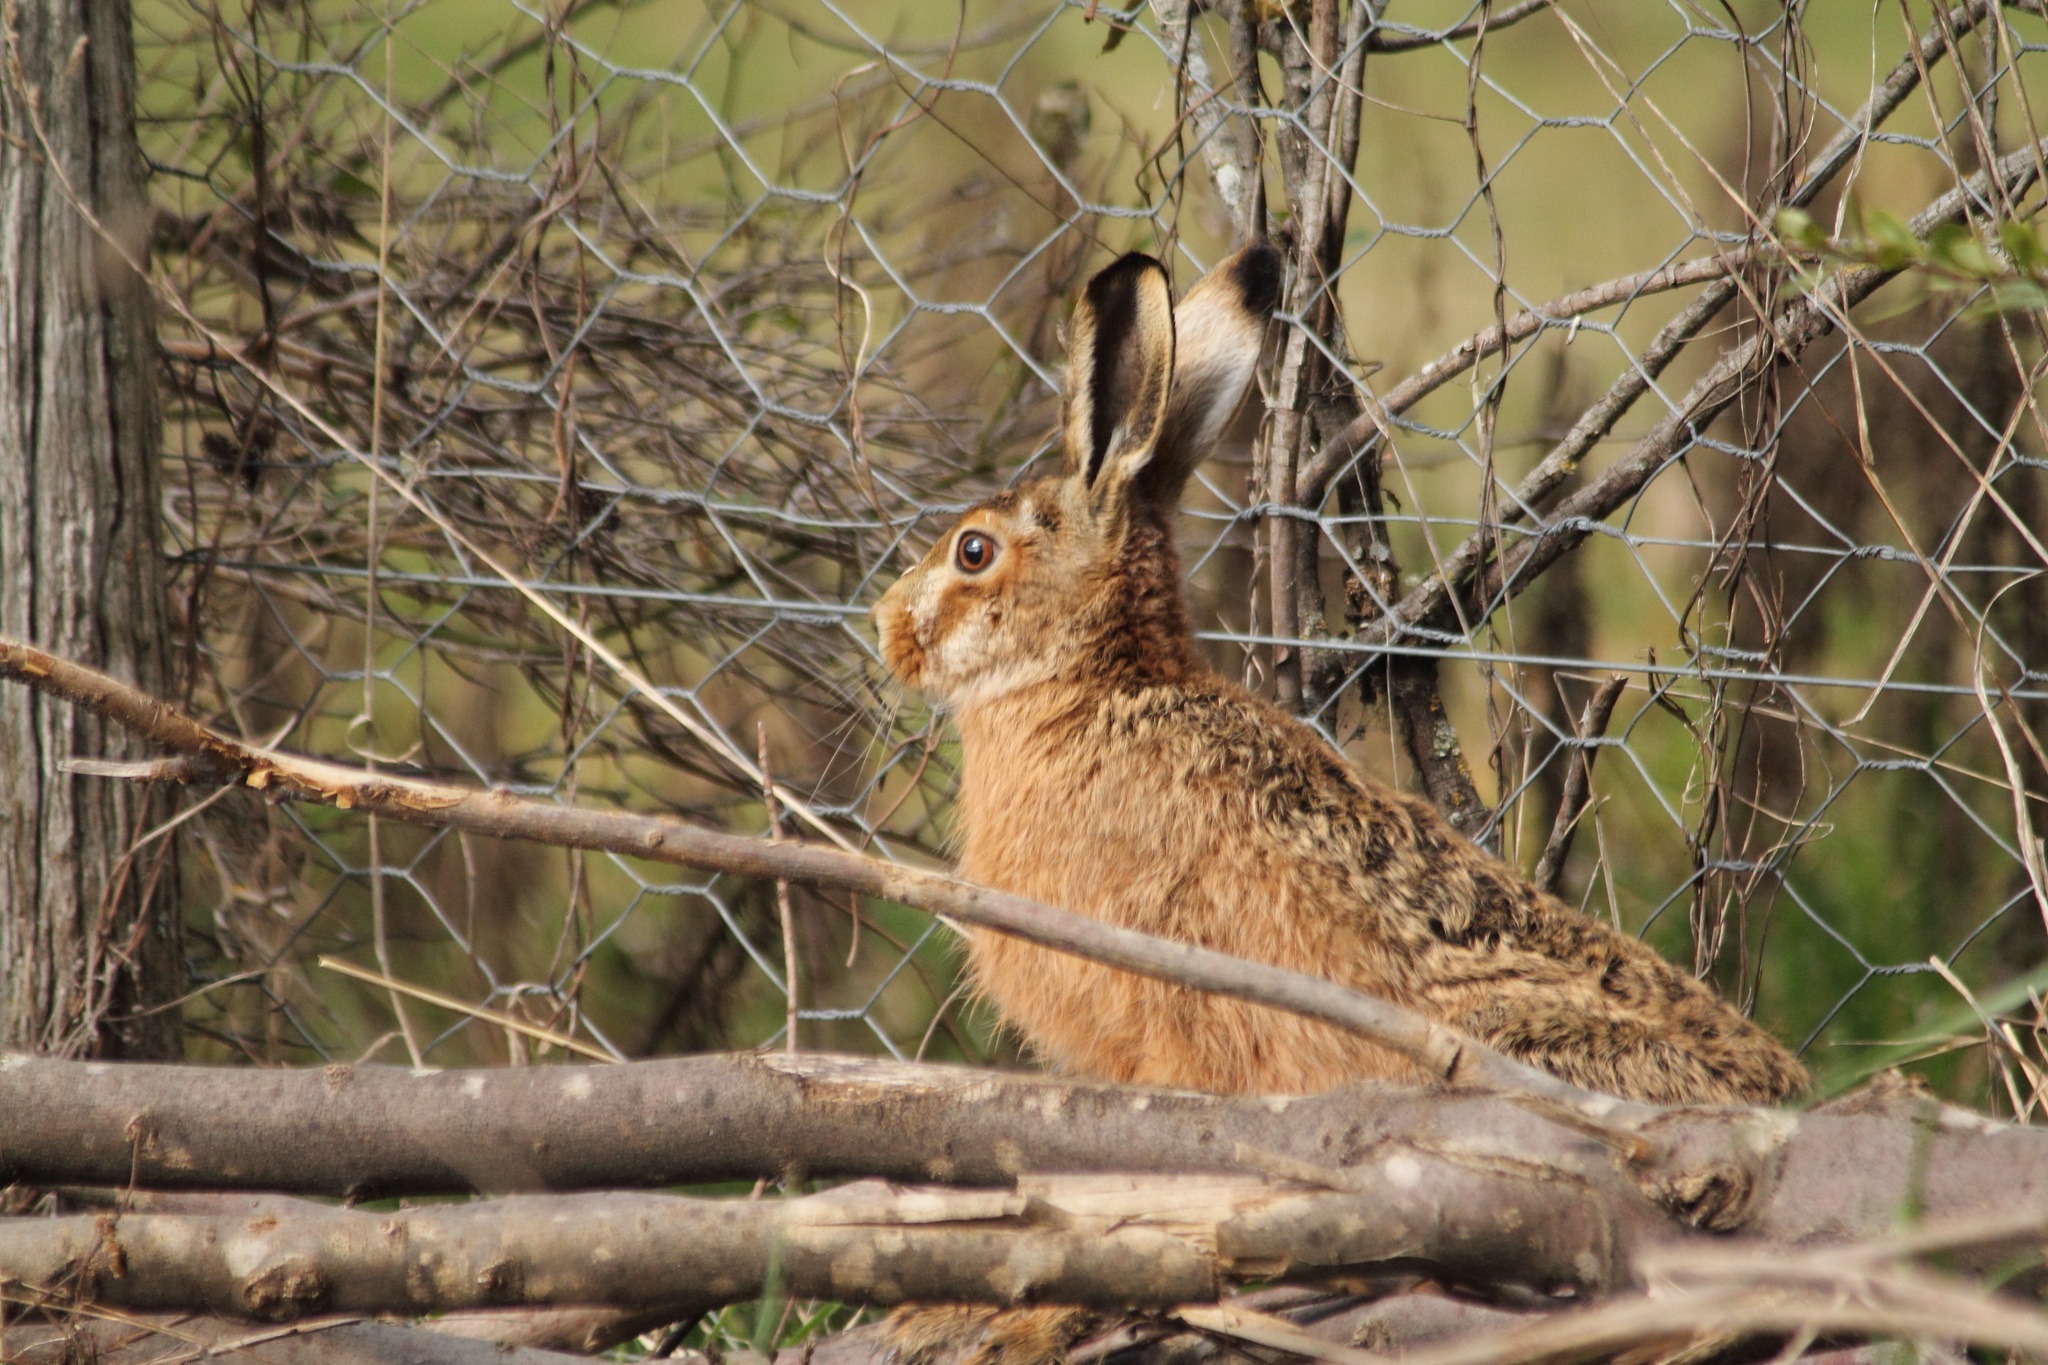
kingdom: Animalia
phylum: Chordata
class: Mammalia
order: Lagomorpha
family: Leporidae
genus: Lepus
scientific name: Lepus europaeus
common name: European hare
